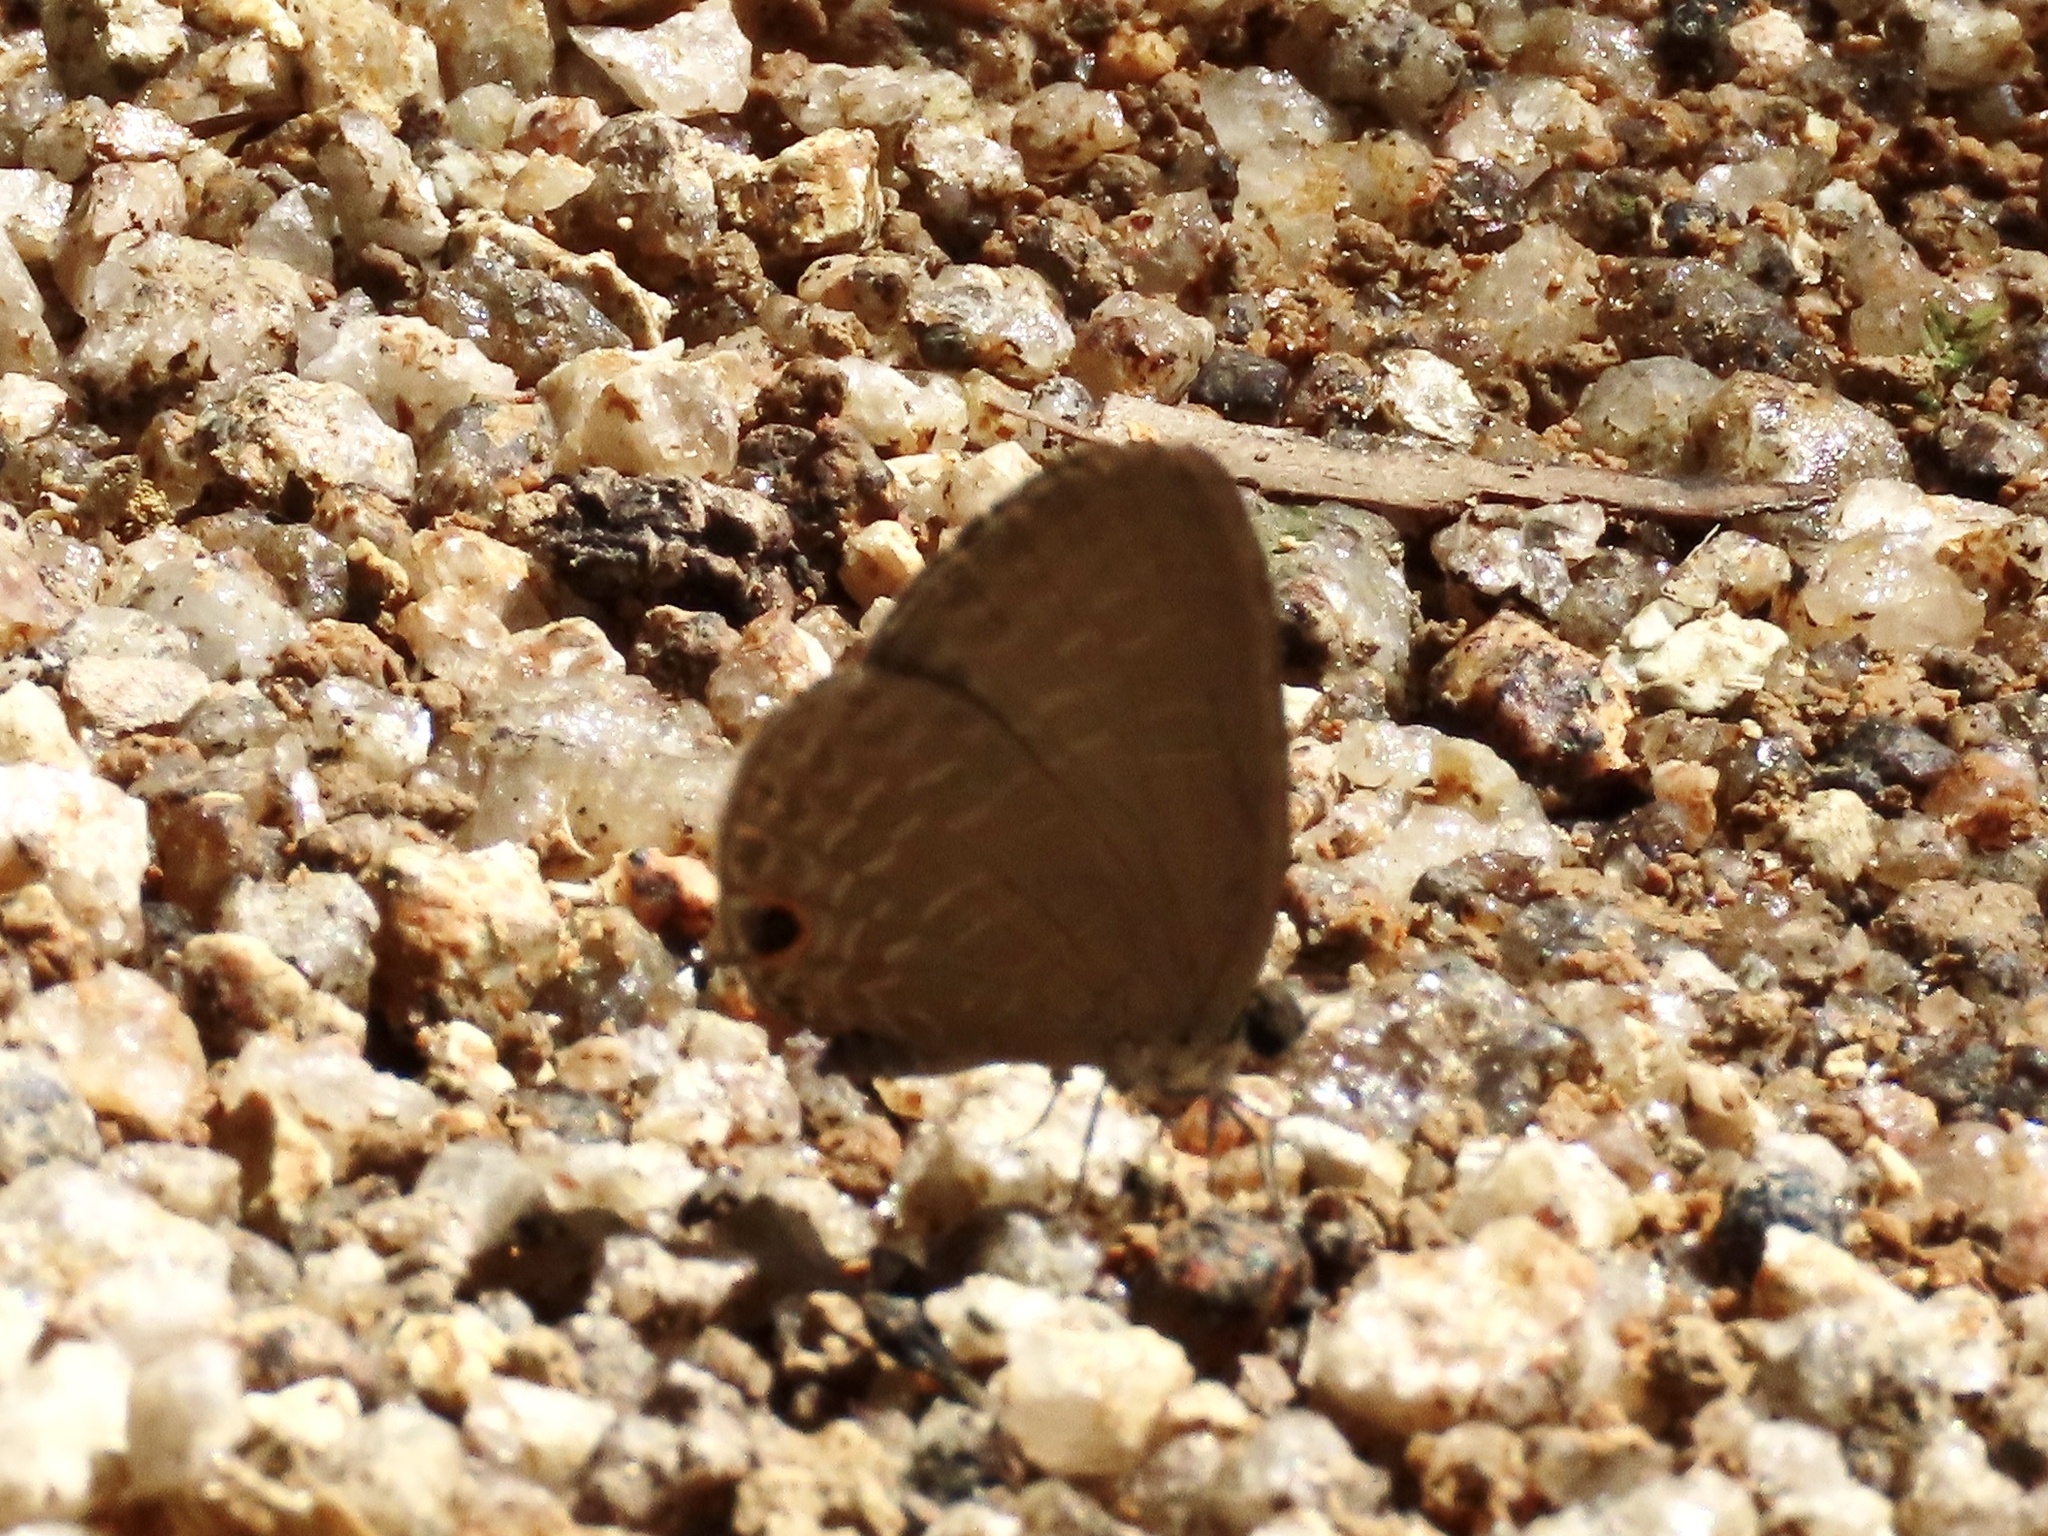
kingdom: Animalia
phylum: Arthropoda
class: Insecta
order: Lepidoptera
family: Lycaenidae
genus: Jamides
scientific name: Jamides bochus
